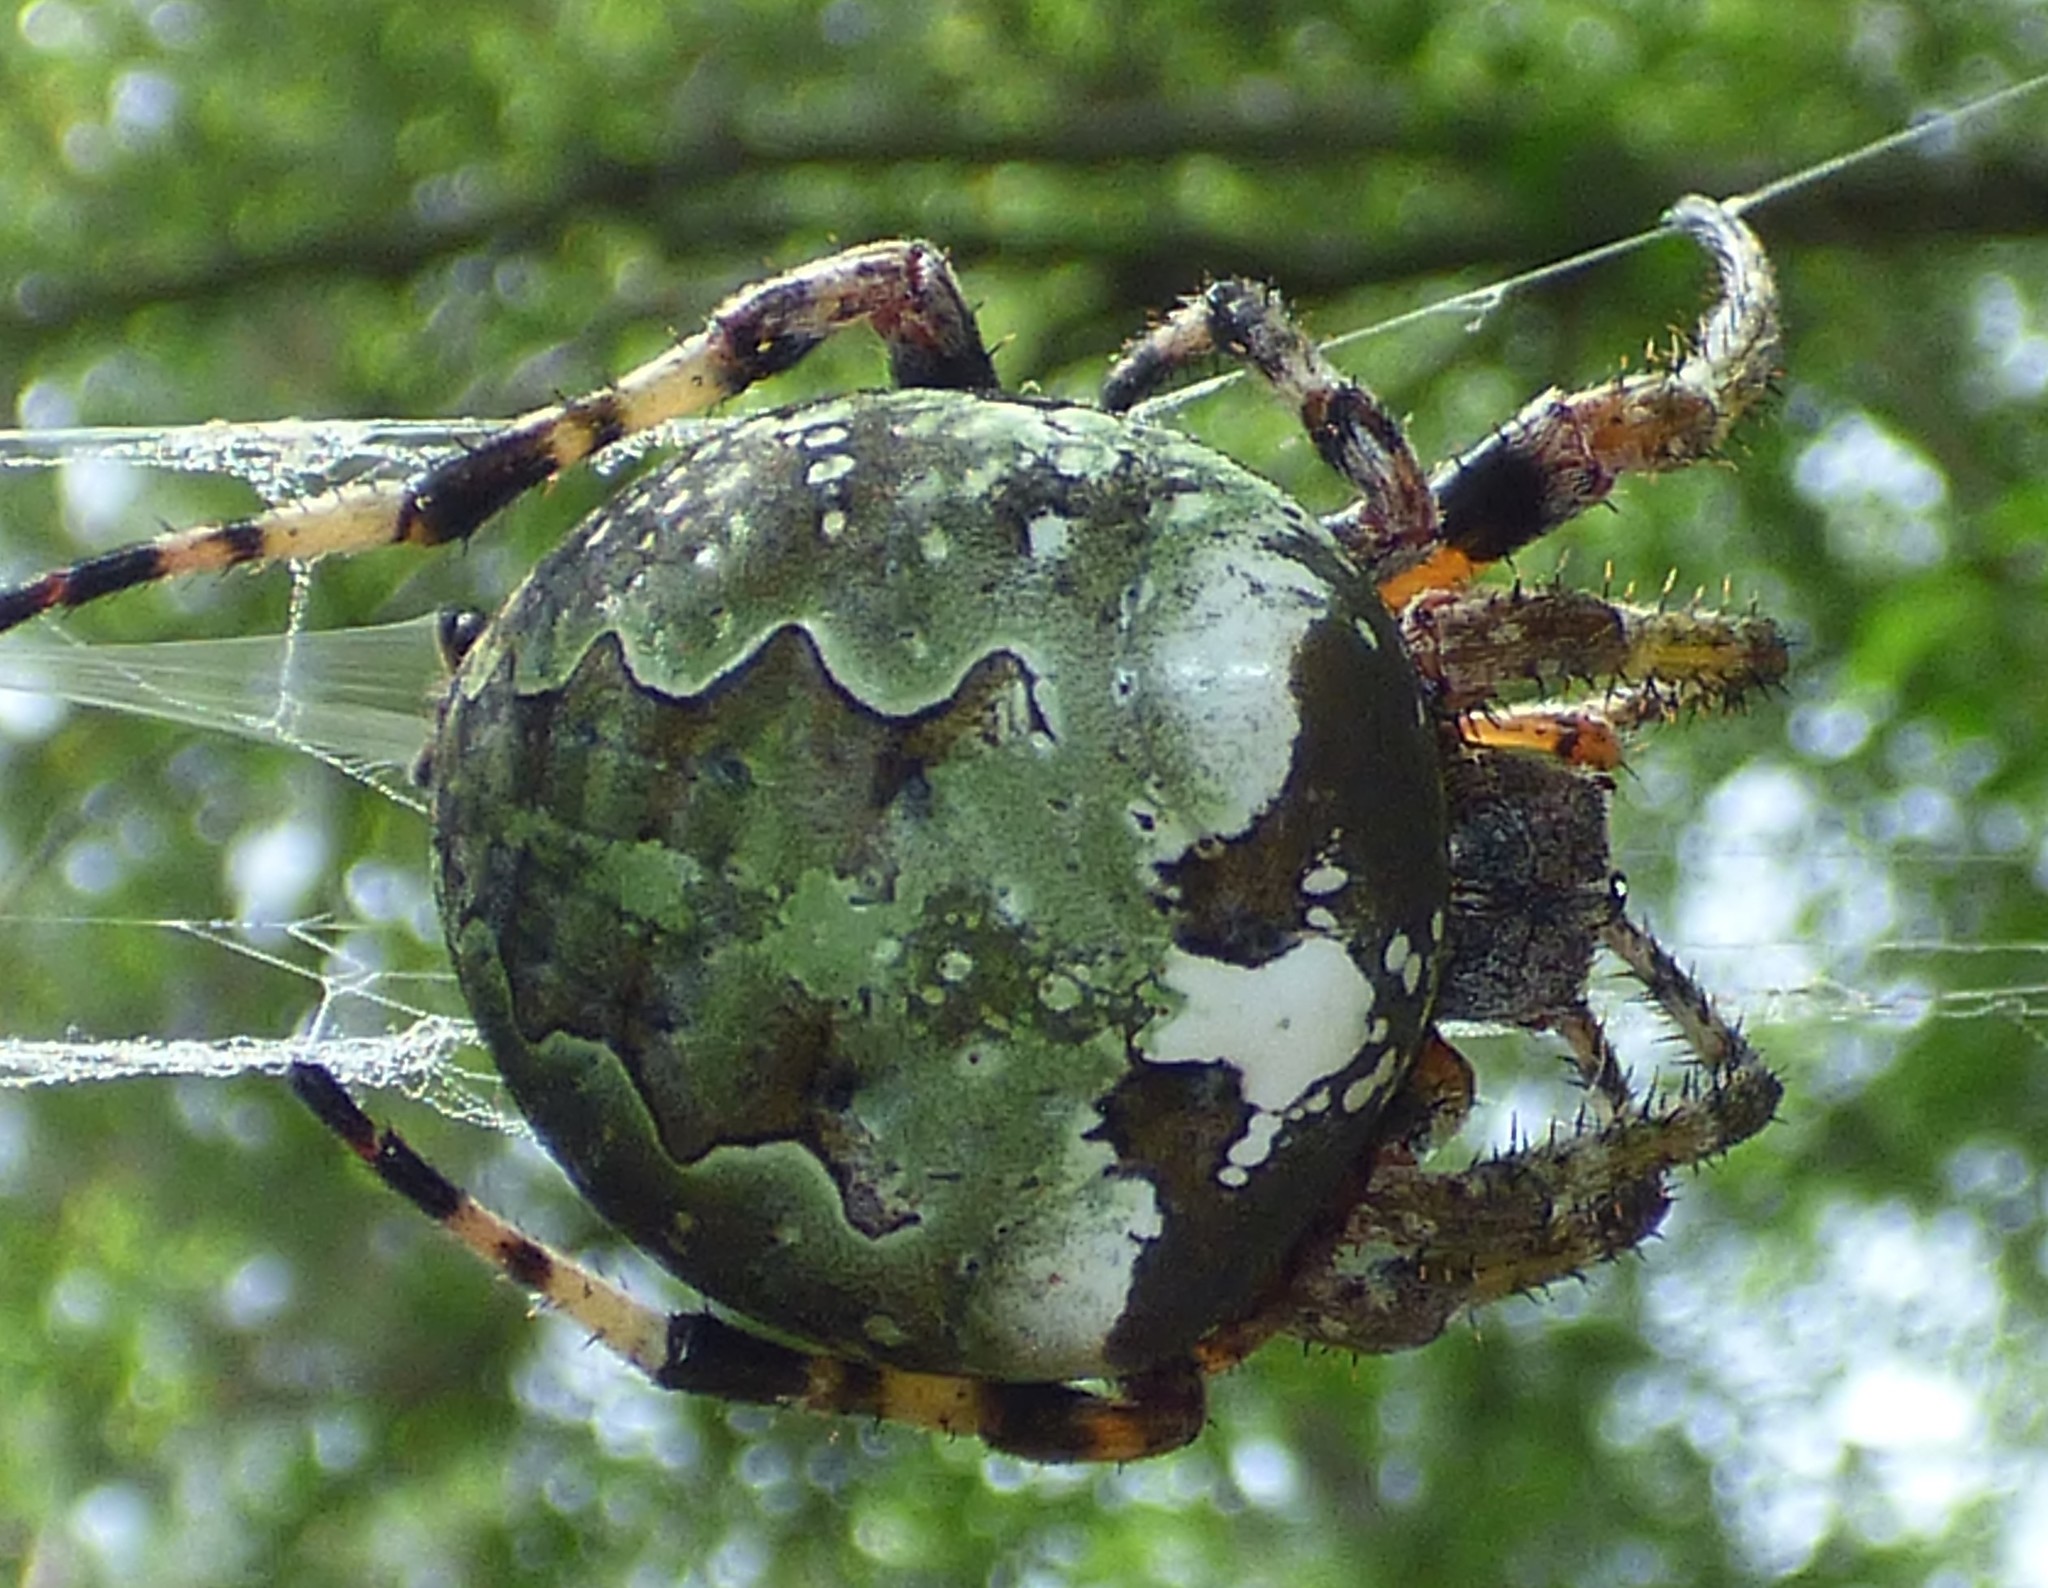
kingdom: Animalia
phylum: Arthropoda
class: Arachnida
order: Araneae
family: Araneidae
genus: Araneus
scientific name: Araneus bicentenarius
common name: Giant lichen orbweaver
